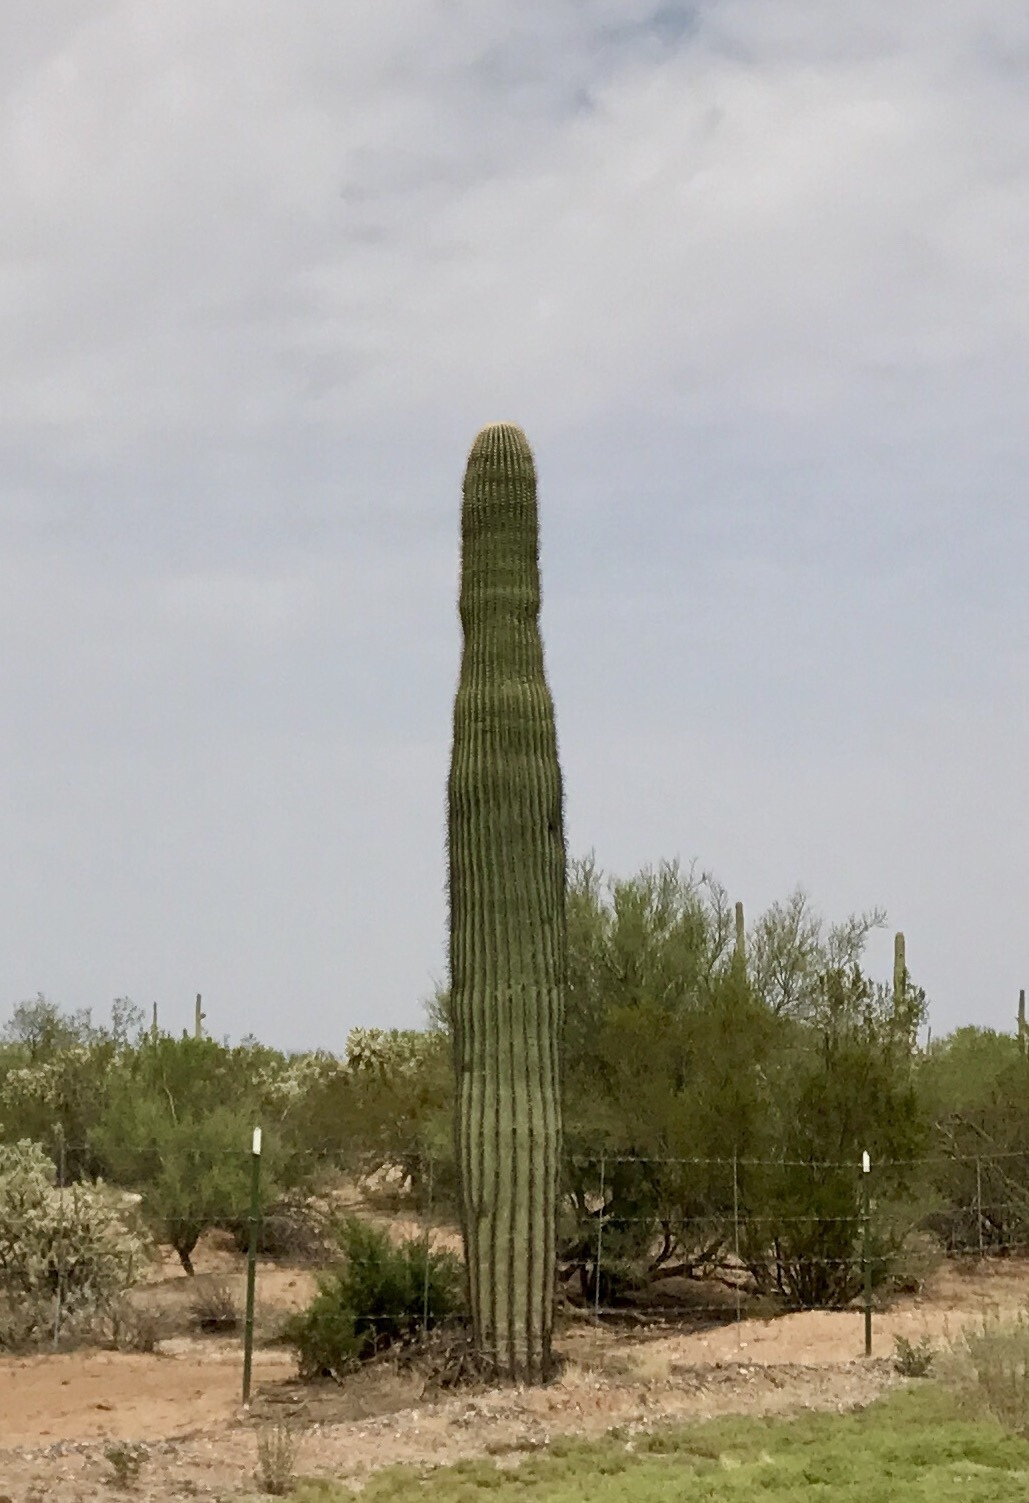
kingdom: Plantae
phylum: Tracheophyta
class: Magnoliopsida
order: Caryophyllales
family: Cactaceae
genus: Carnegiea
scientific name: Carnegiea gigantea
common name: Saguaro
